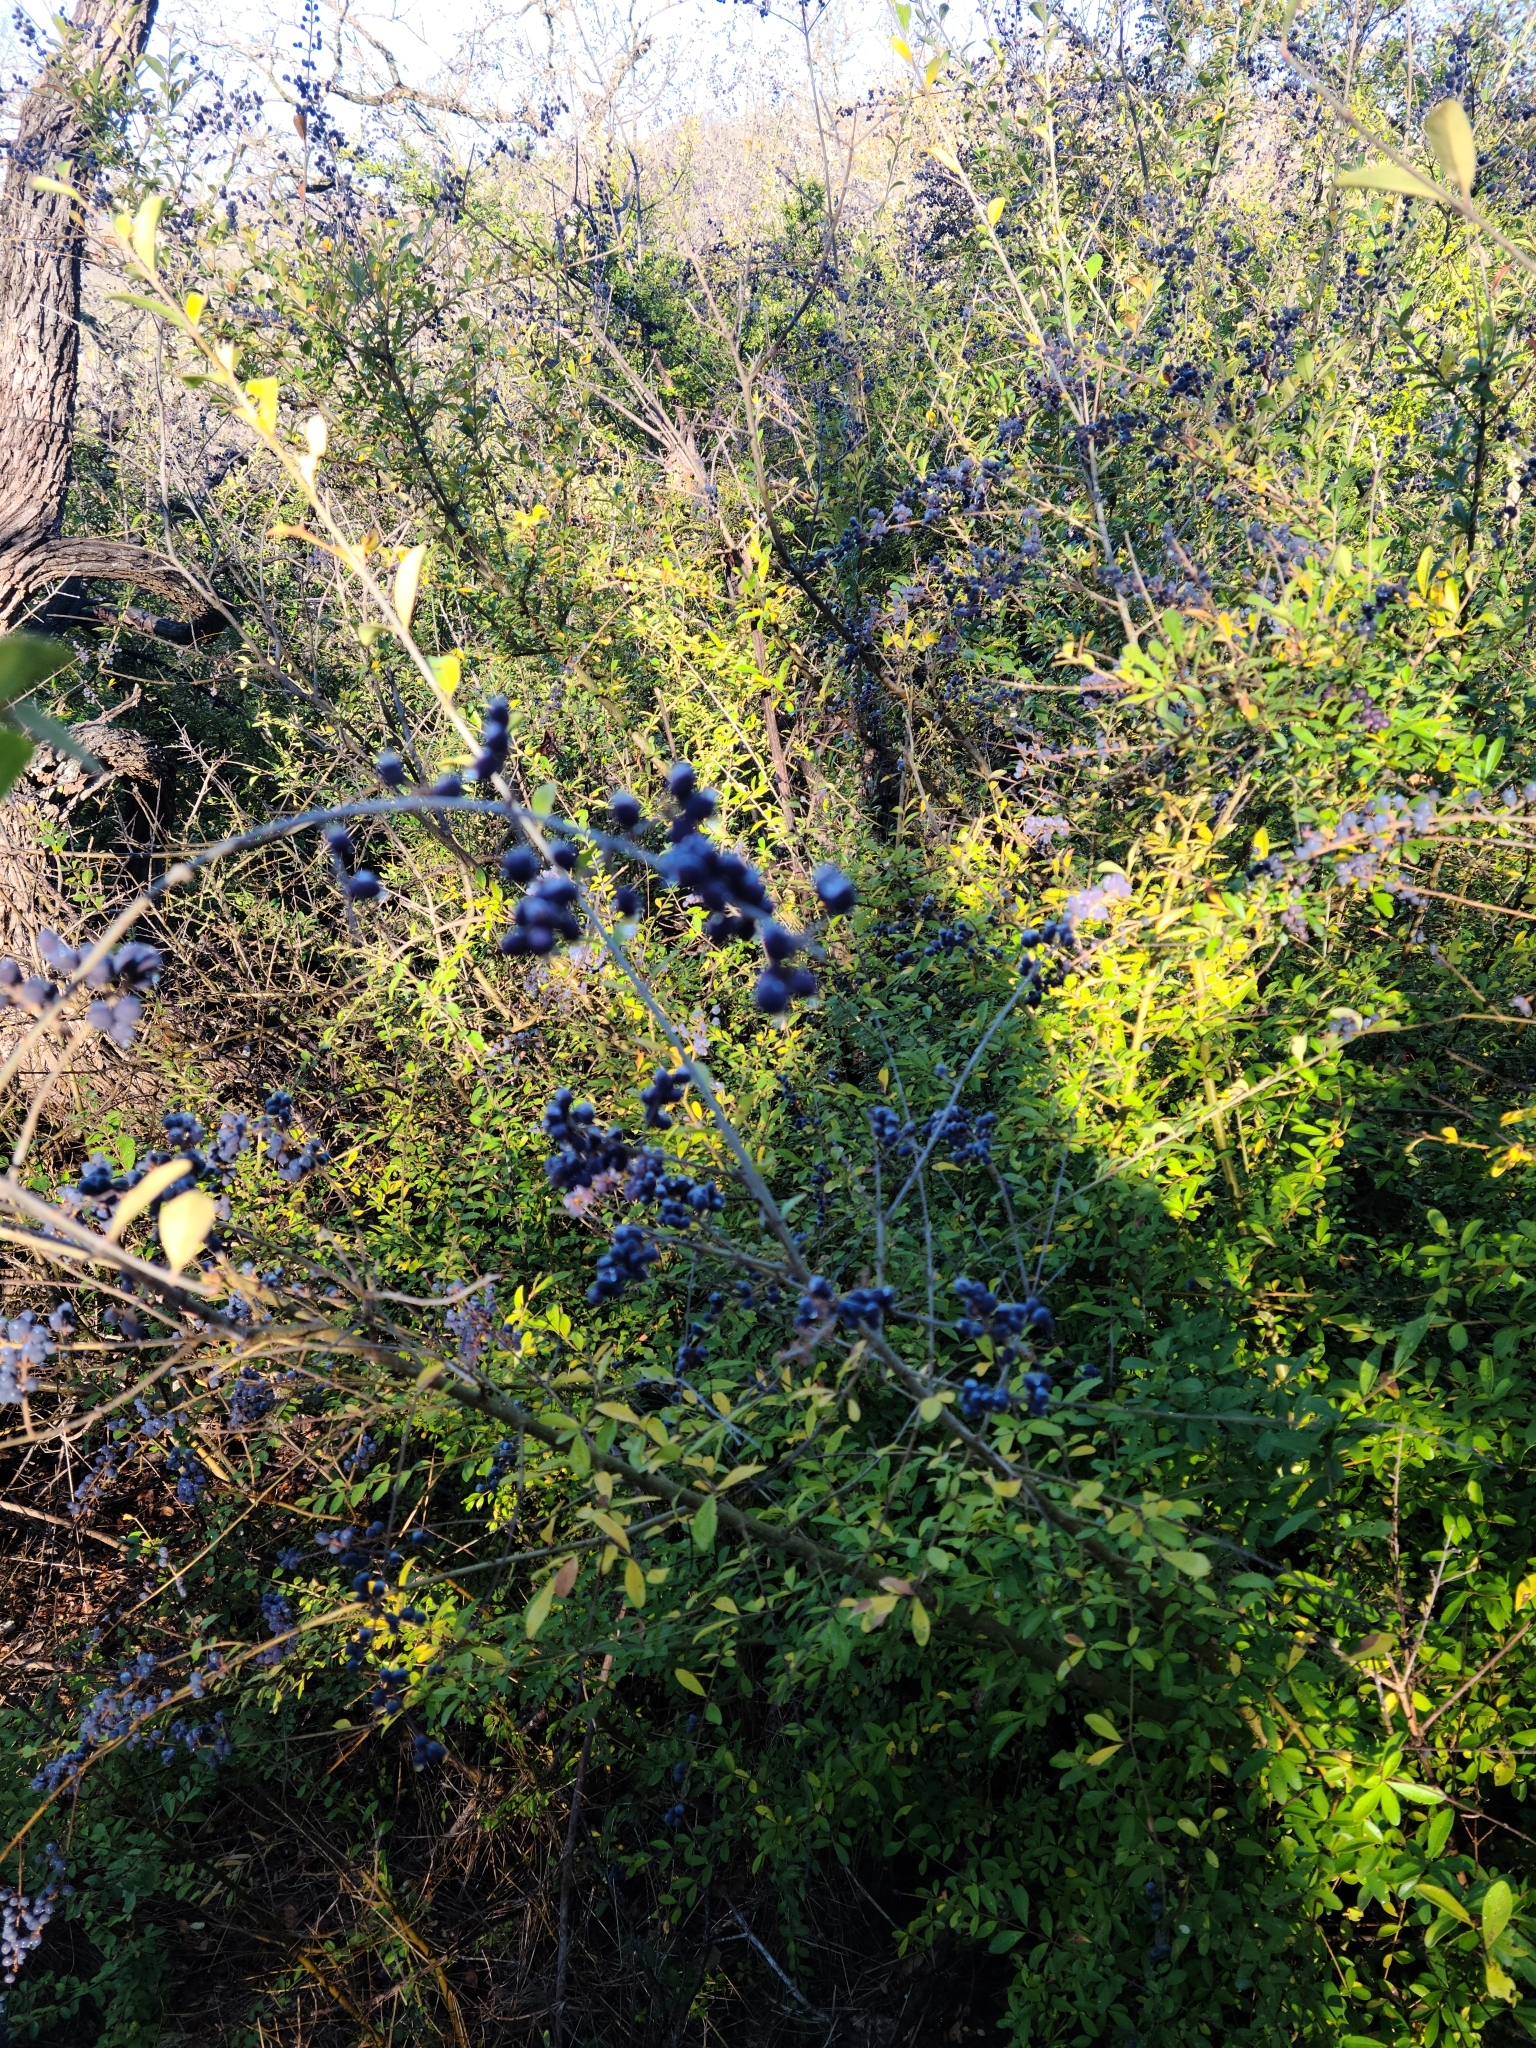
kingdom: Plantae
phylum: Tracheophyta
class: Magnoliopsida
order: Lamiales
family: Oleaceae
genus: Ligustrum
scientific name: Ligustrum quihoui
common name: Waxyleaf privet
